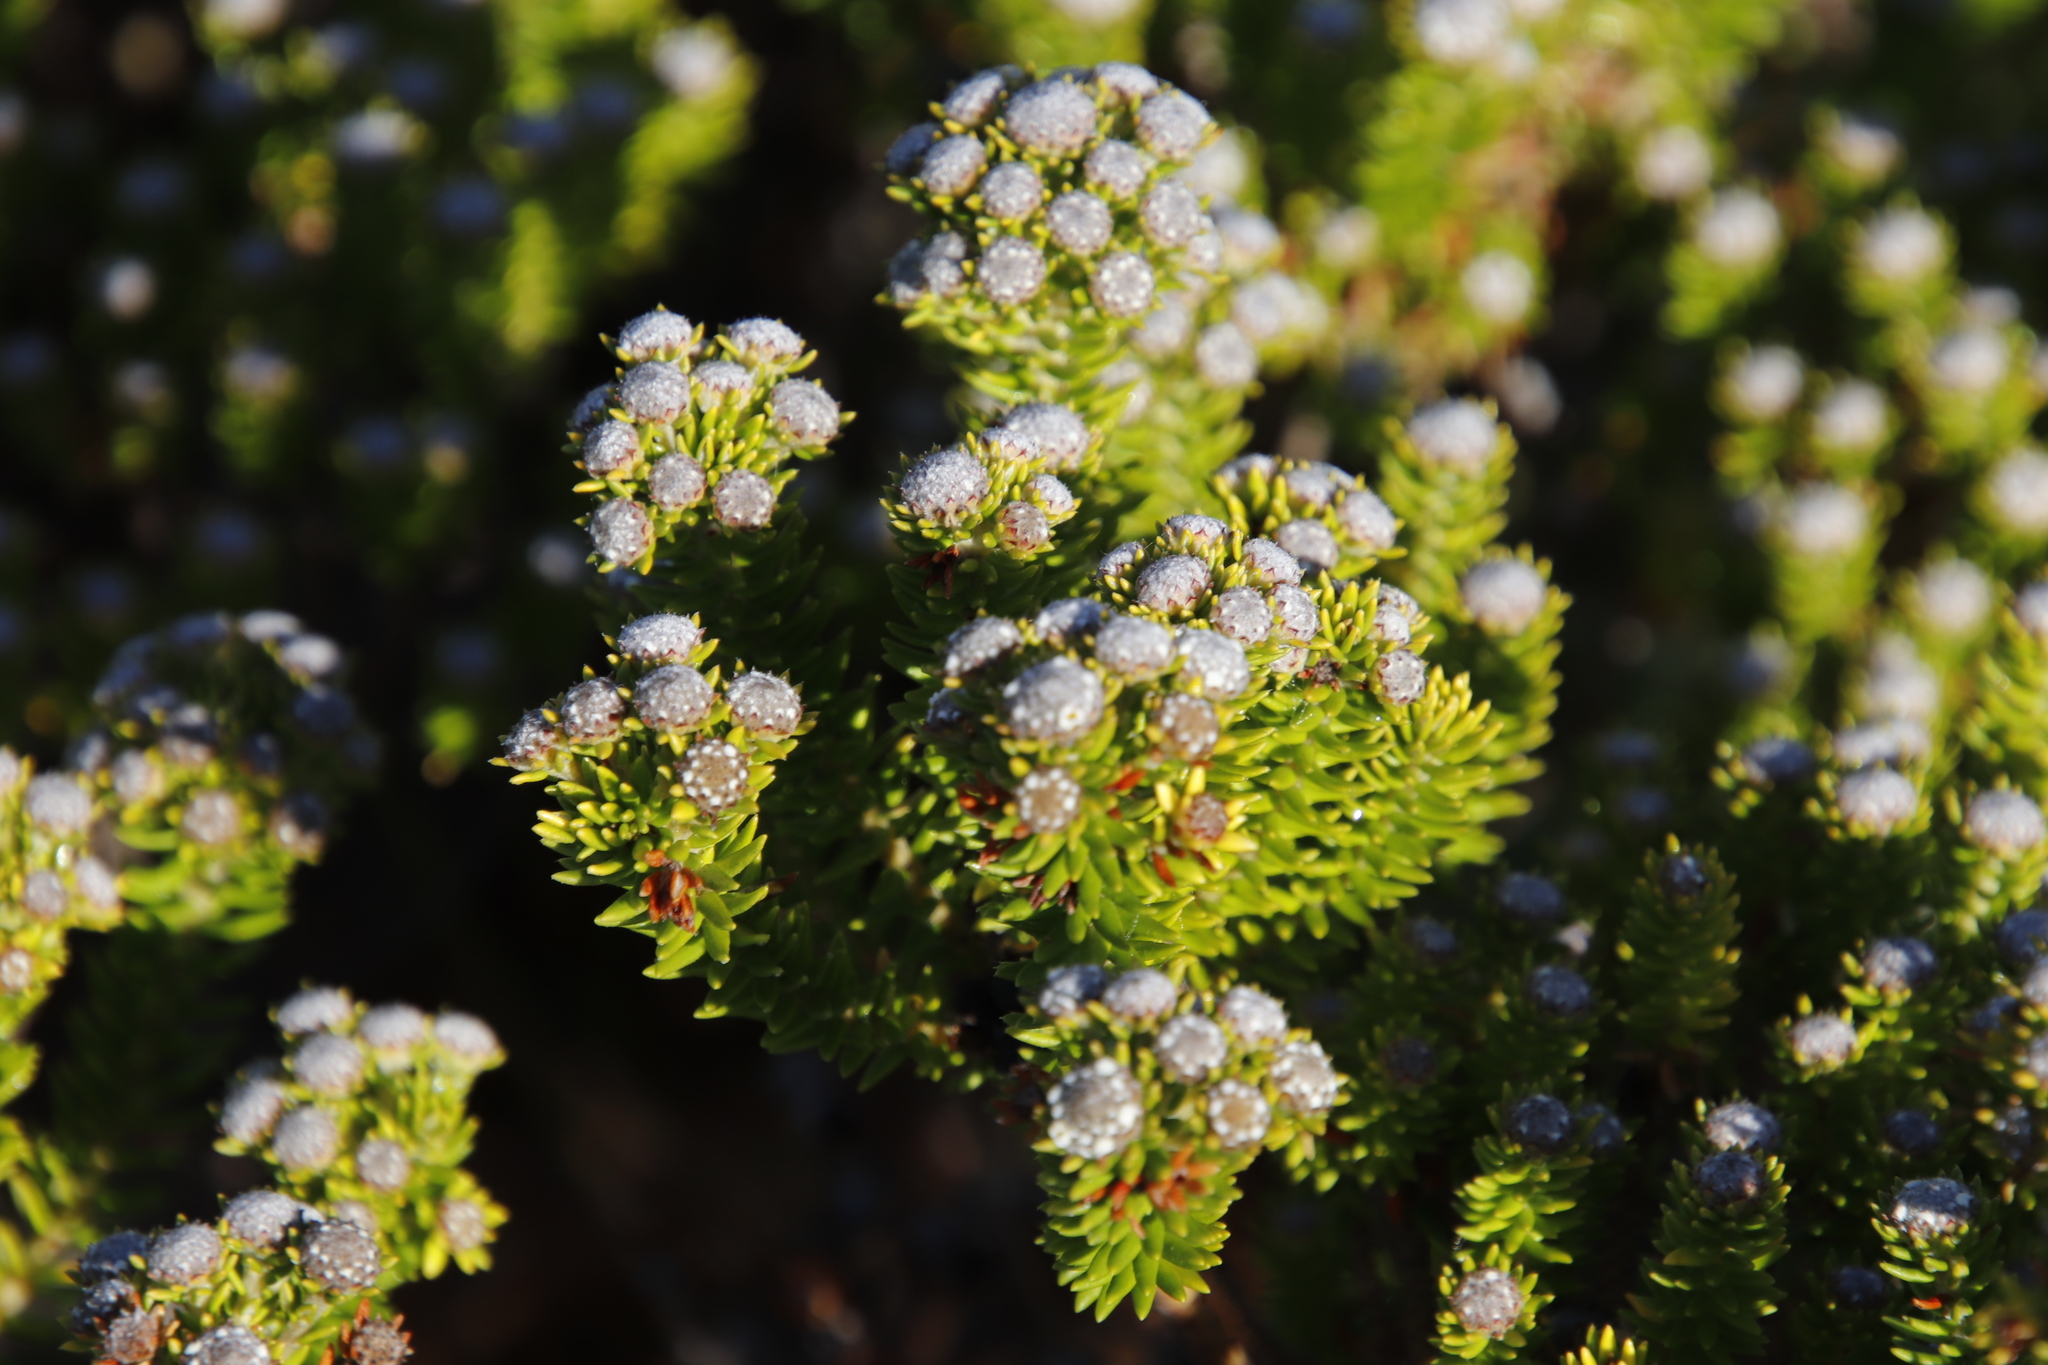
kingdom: Plantae
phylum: Tracheophyta
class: Magnoliopsida
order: Rosales
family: Rhamnaceae
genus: Phylica
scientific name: Phylica ericoides
